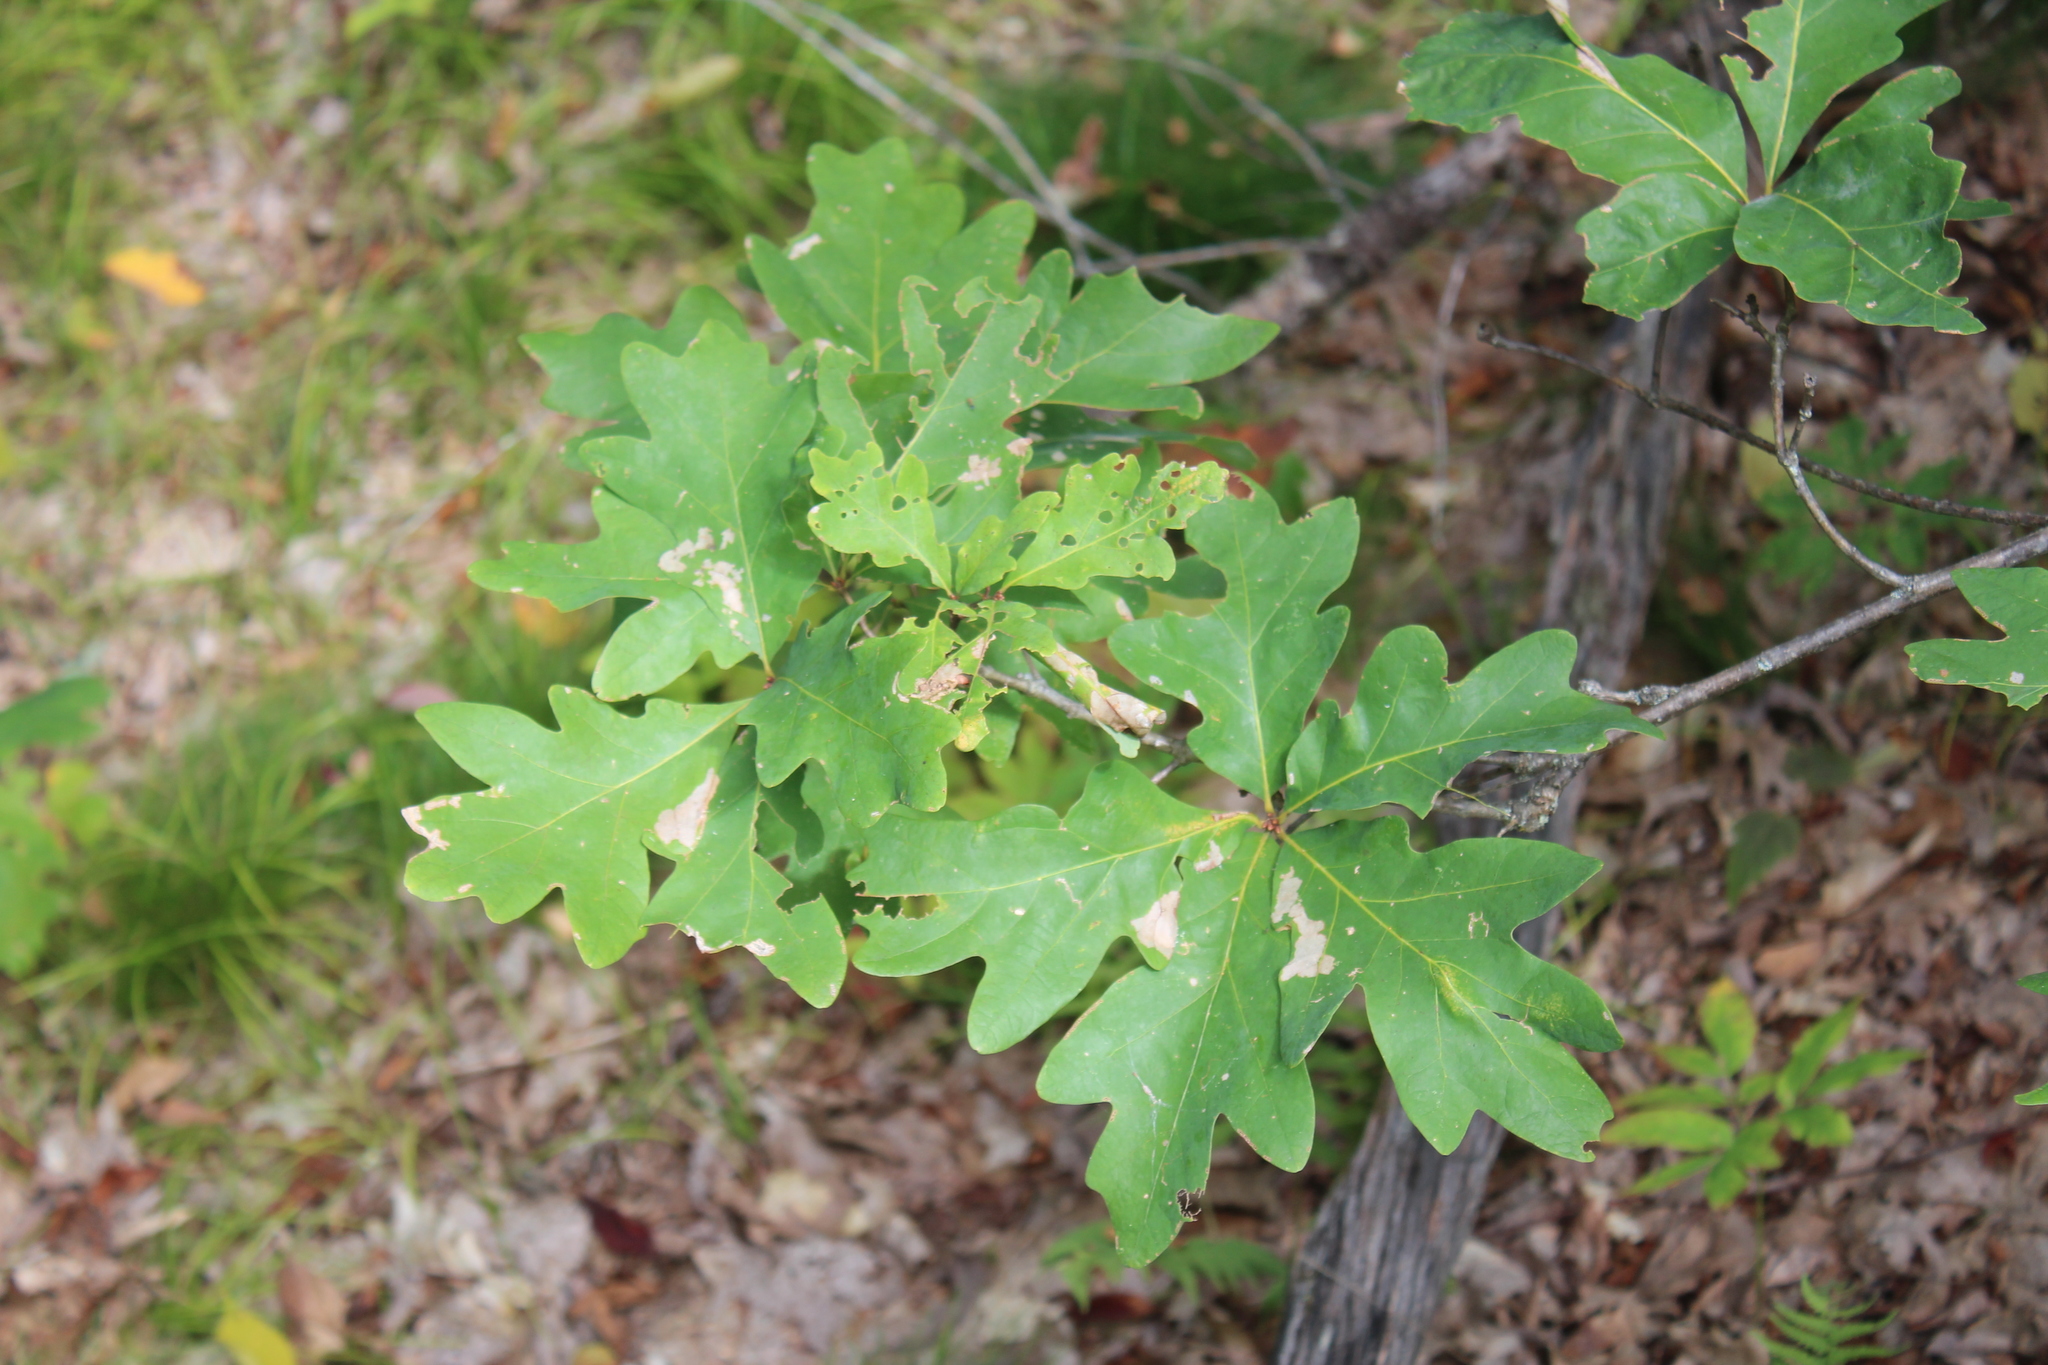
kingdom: Plantae
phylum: Tracheophyta
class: Magnoliopsida
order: Fagales
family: Fagaceae
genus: Quercus
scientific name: Quercus alba
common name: White oak
